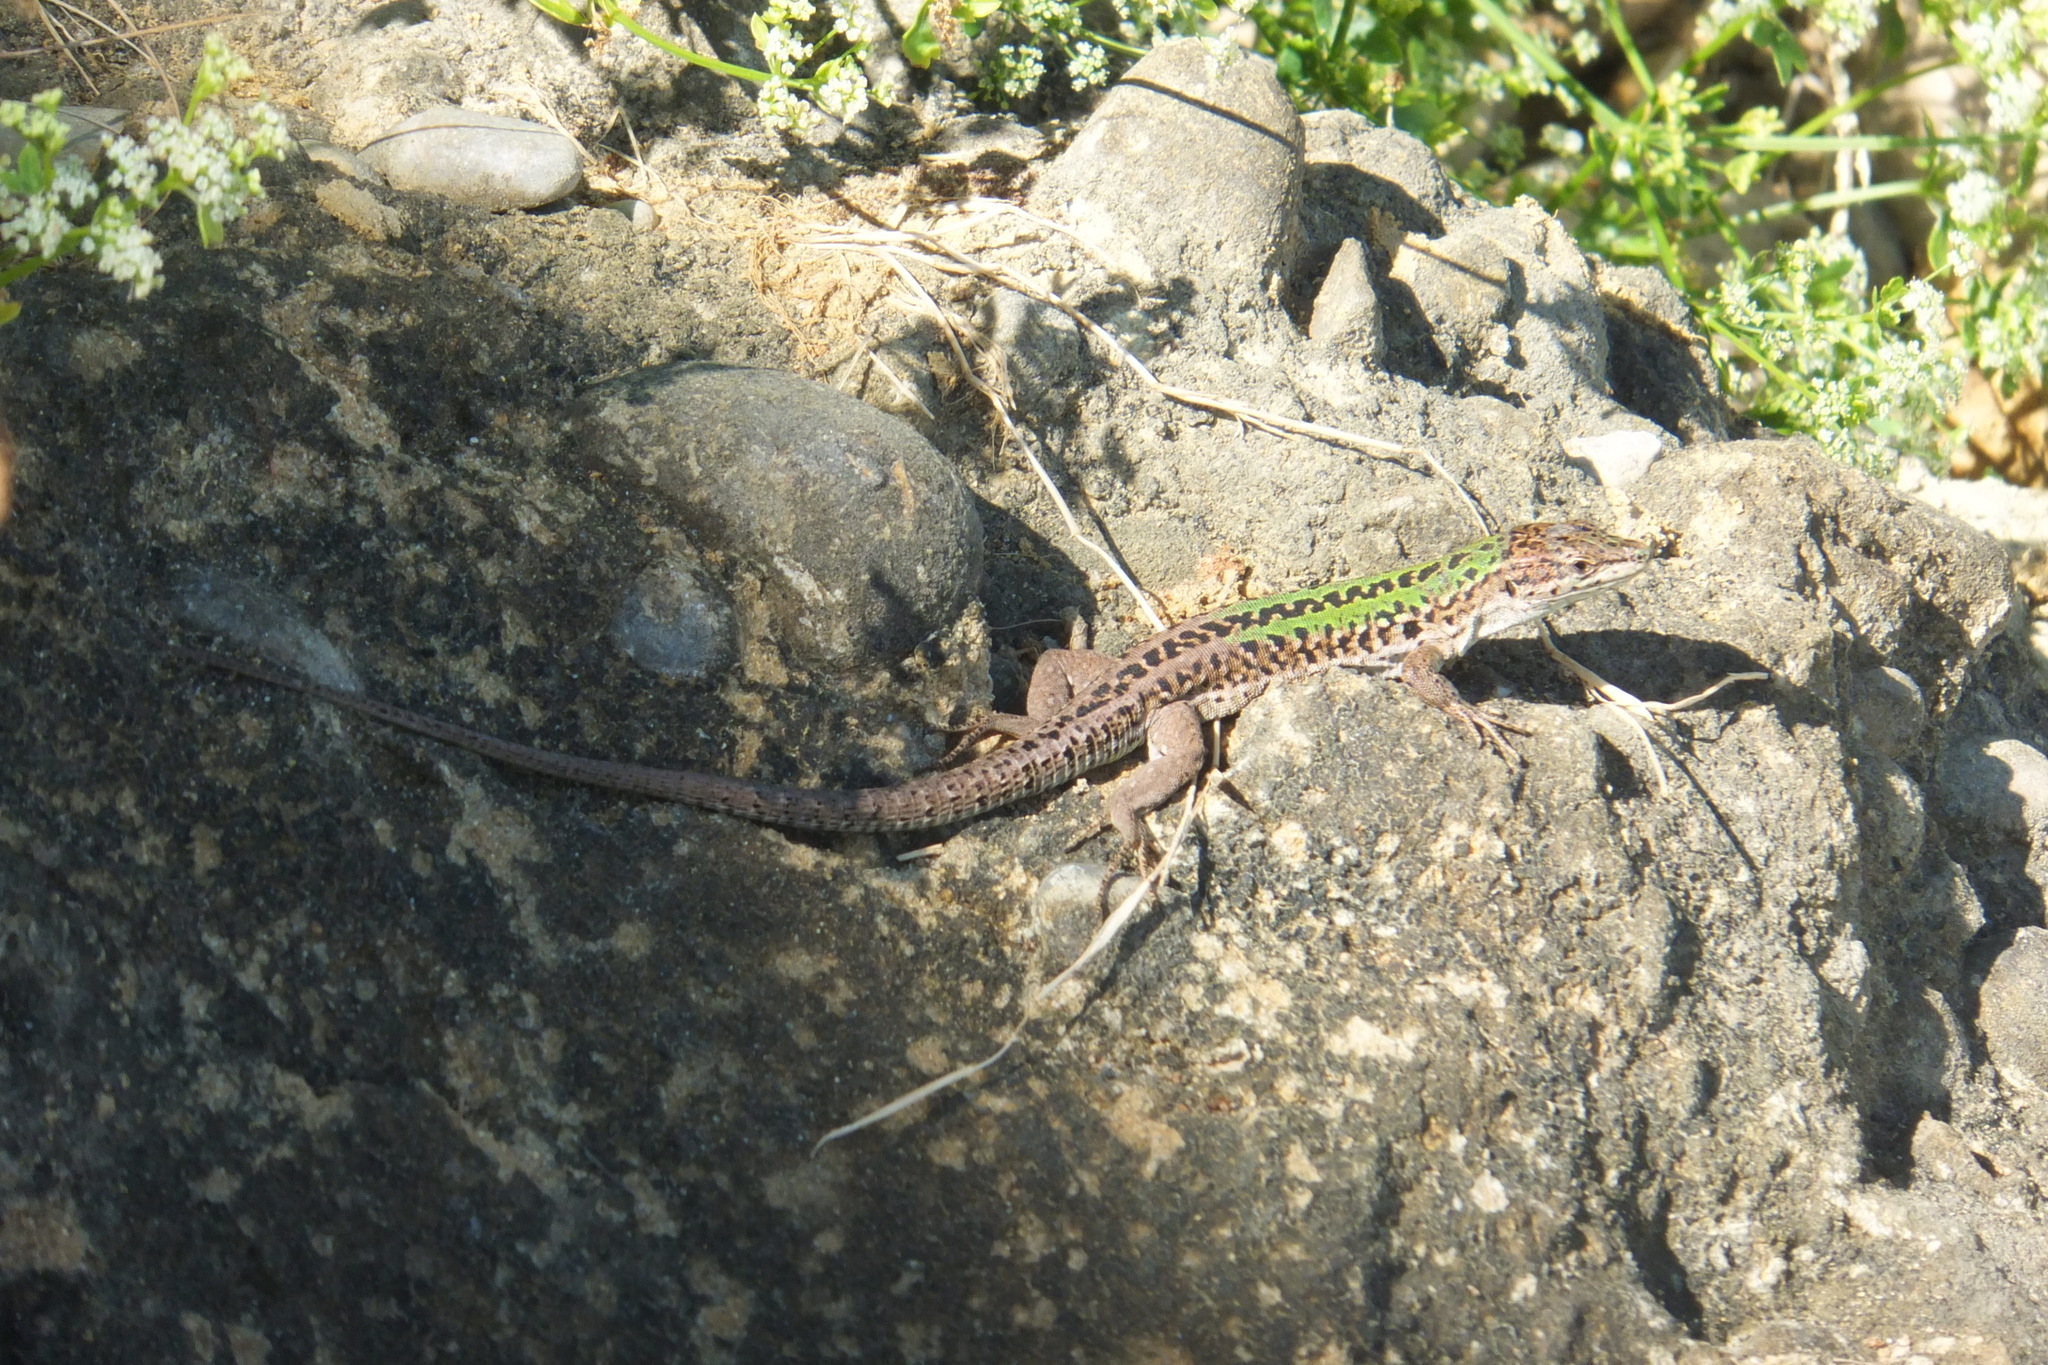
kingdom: Animalia
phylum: Chordata
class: Squamata
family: Lacertidae
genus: Podarcis
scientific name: Podarcis siculus
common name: Italian wall lizard
